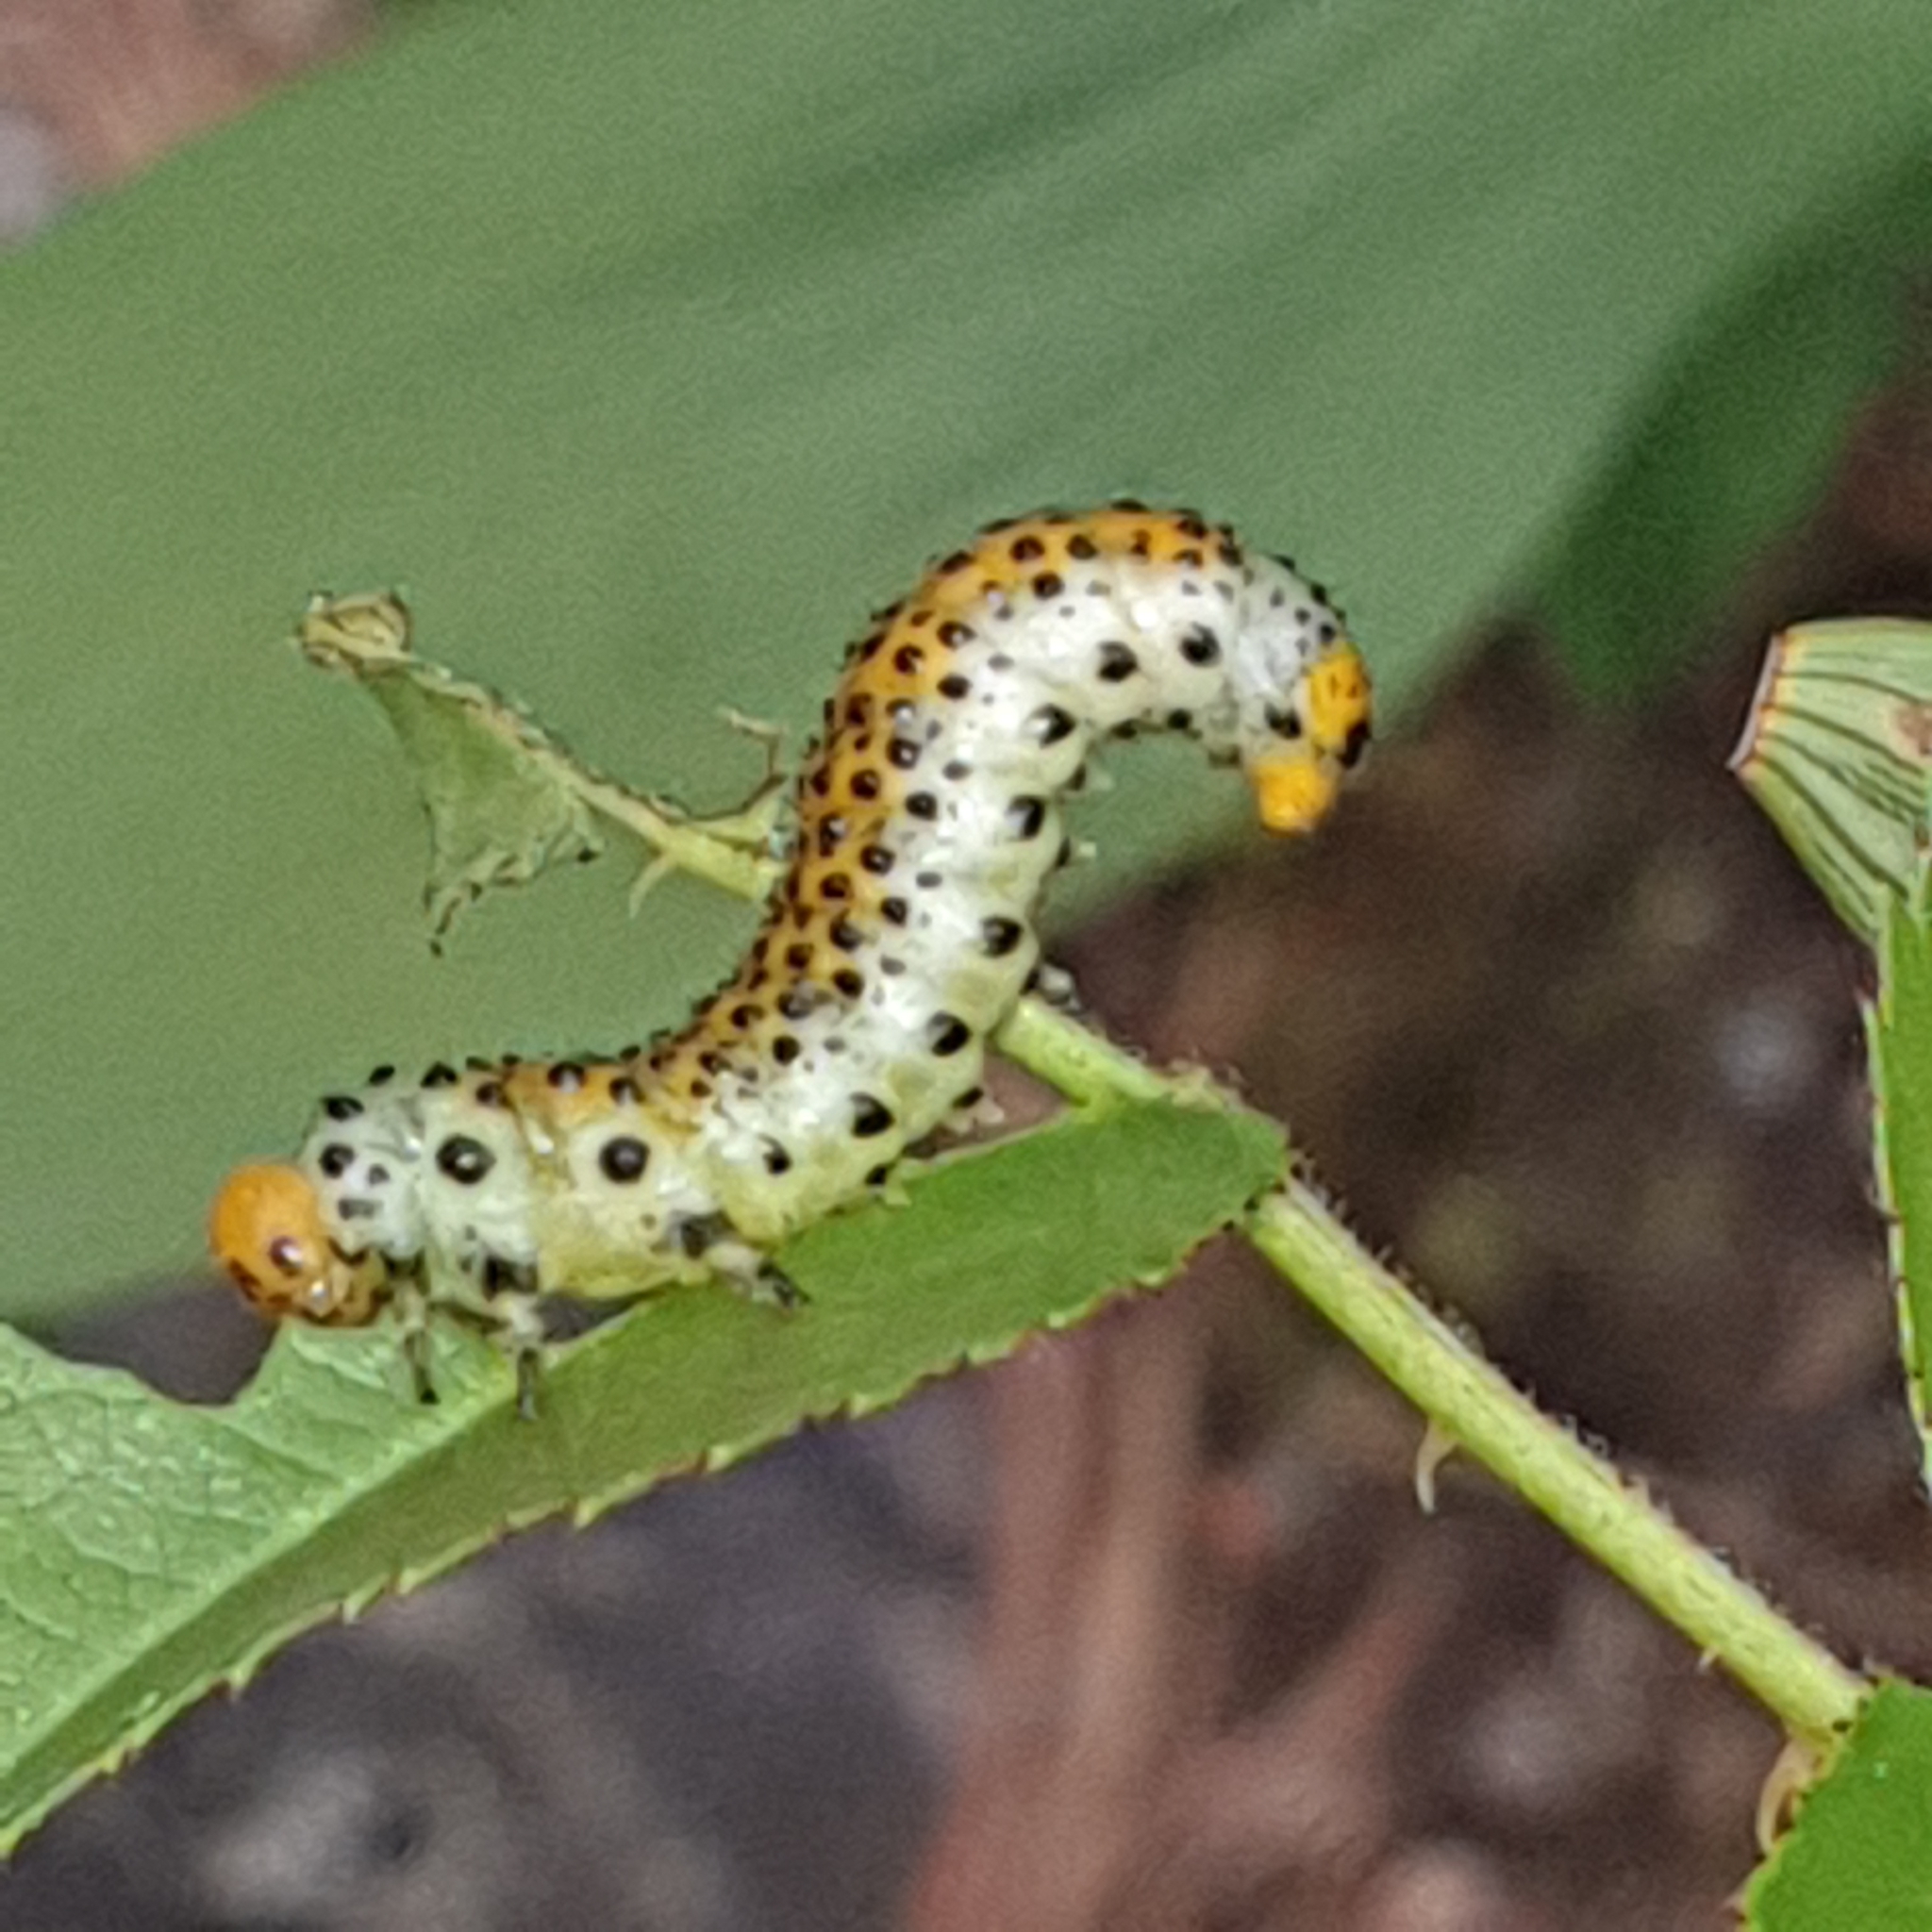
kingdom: Animalia
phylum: Arthropoda
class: Insecta
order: Hymenoptera
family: Argidae
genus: Arge
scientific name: Arge ochropus
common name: Argid sawfly
